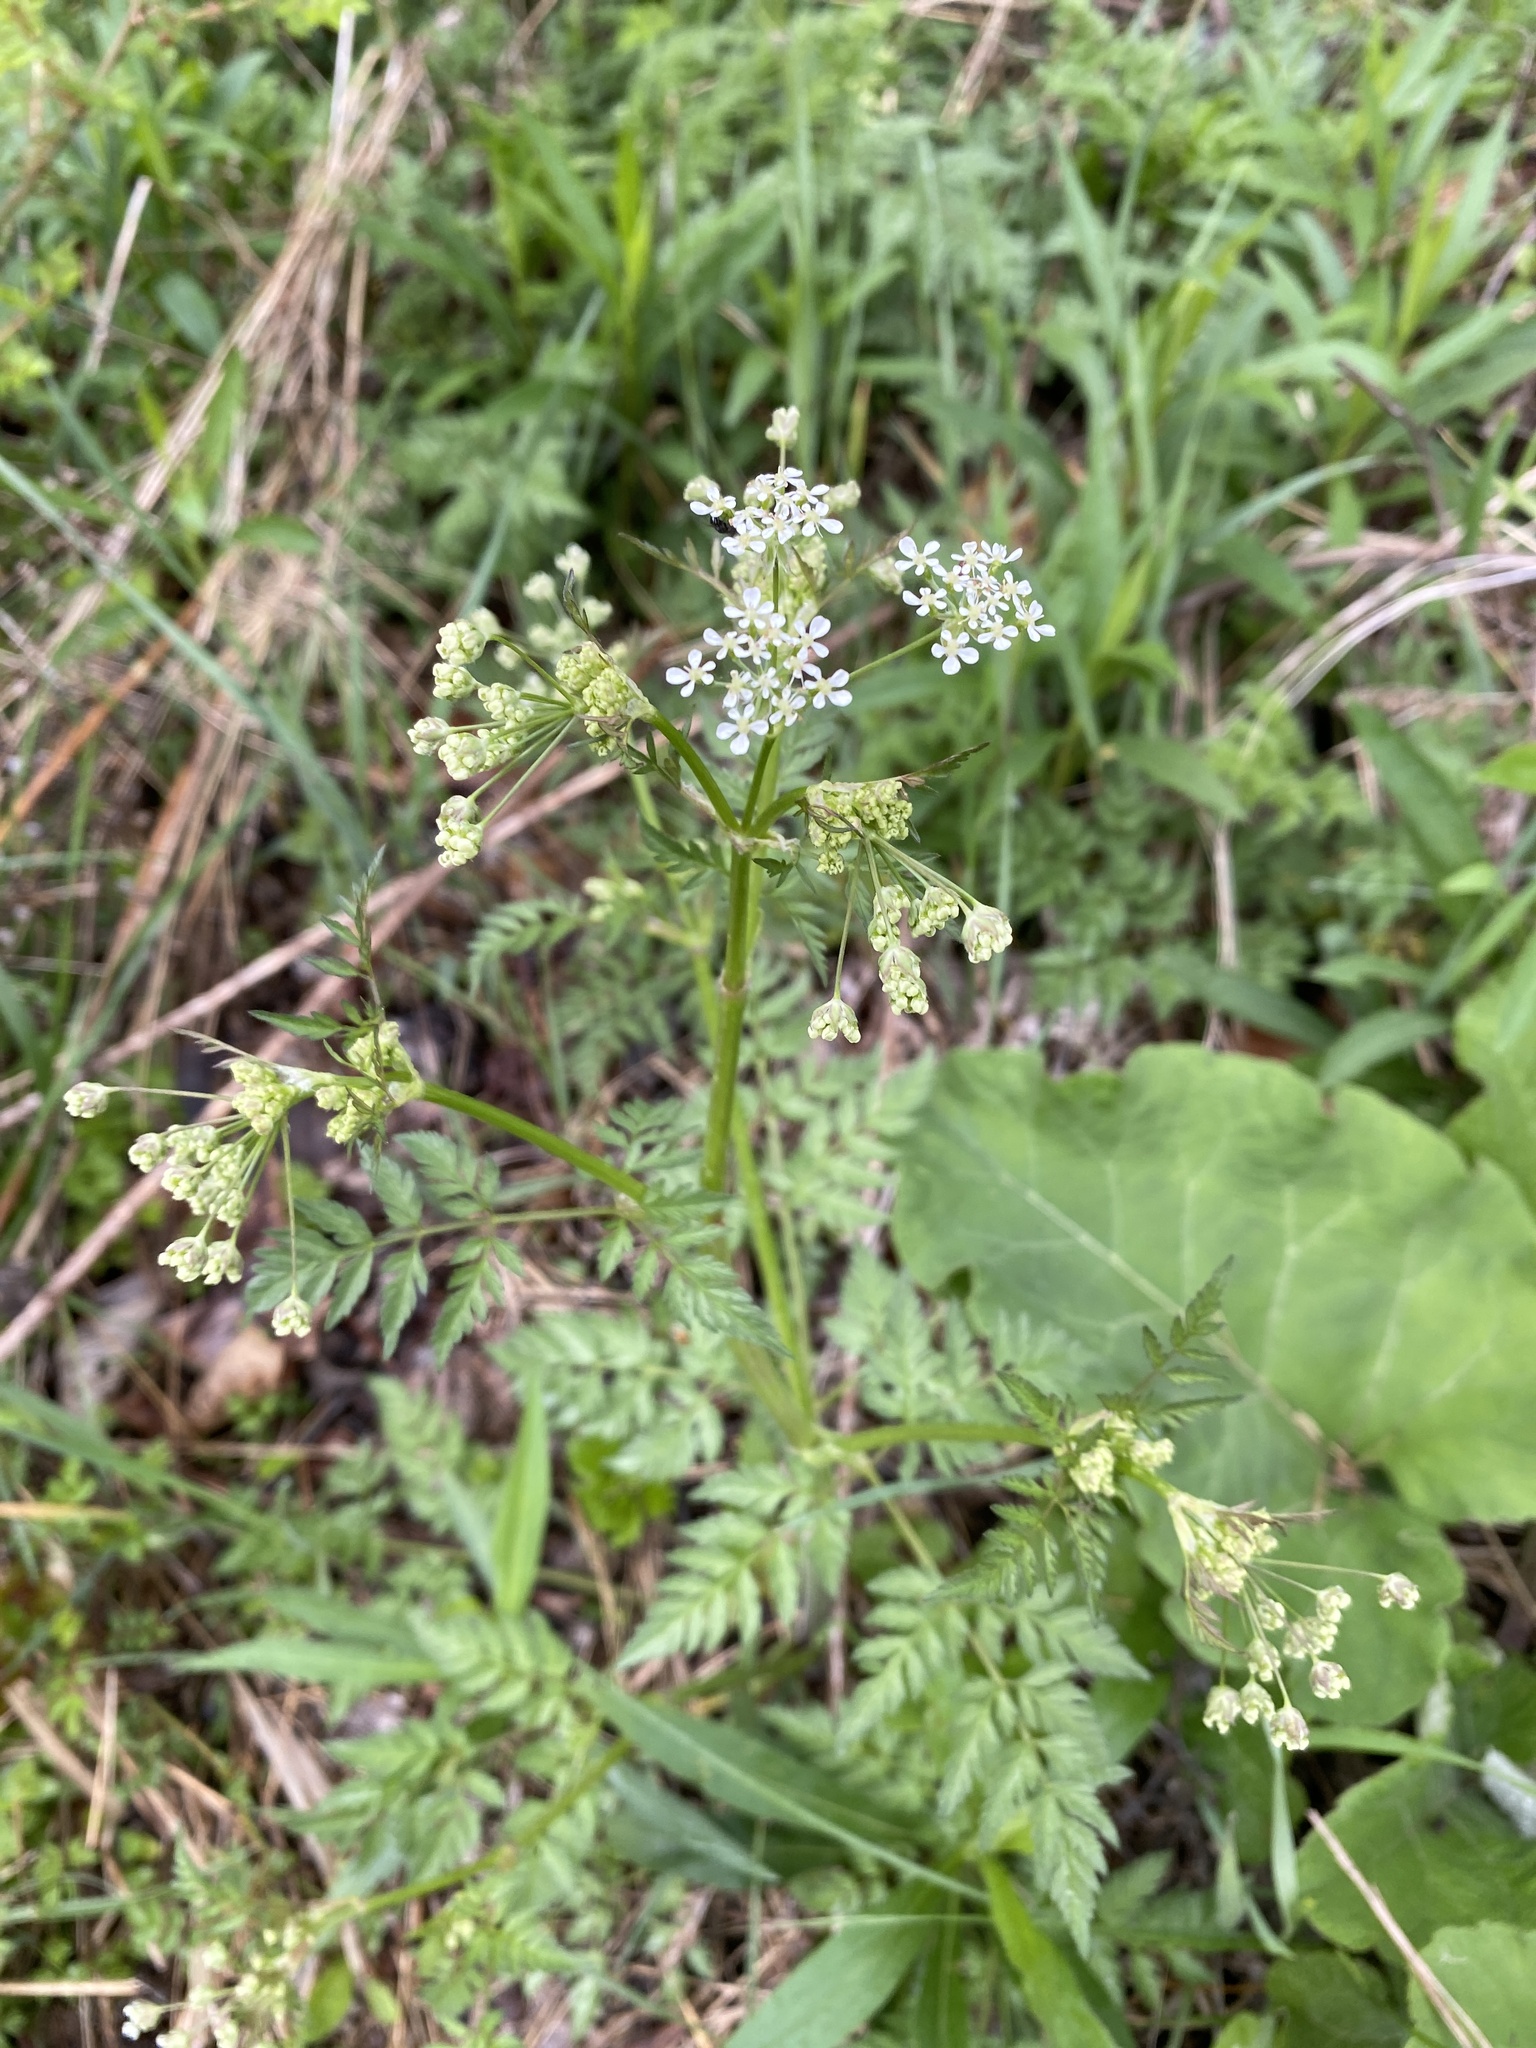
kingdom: Plantae
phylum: Tracheophyta
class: Magnoliopsida
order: Apiales
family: Apiaceae
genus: Anthriscus
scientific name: Anthriscus sylvestris
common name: Cow parsley
